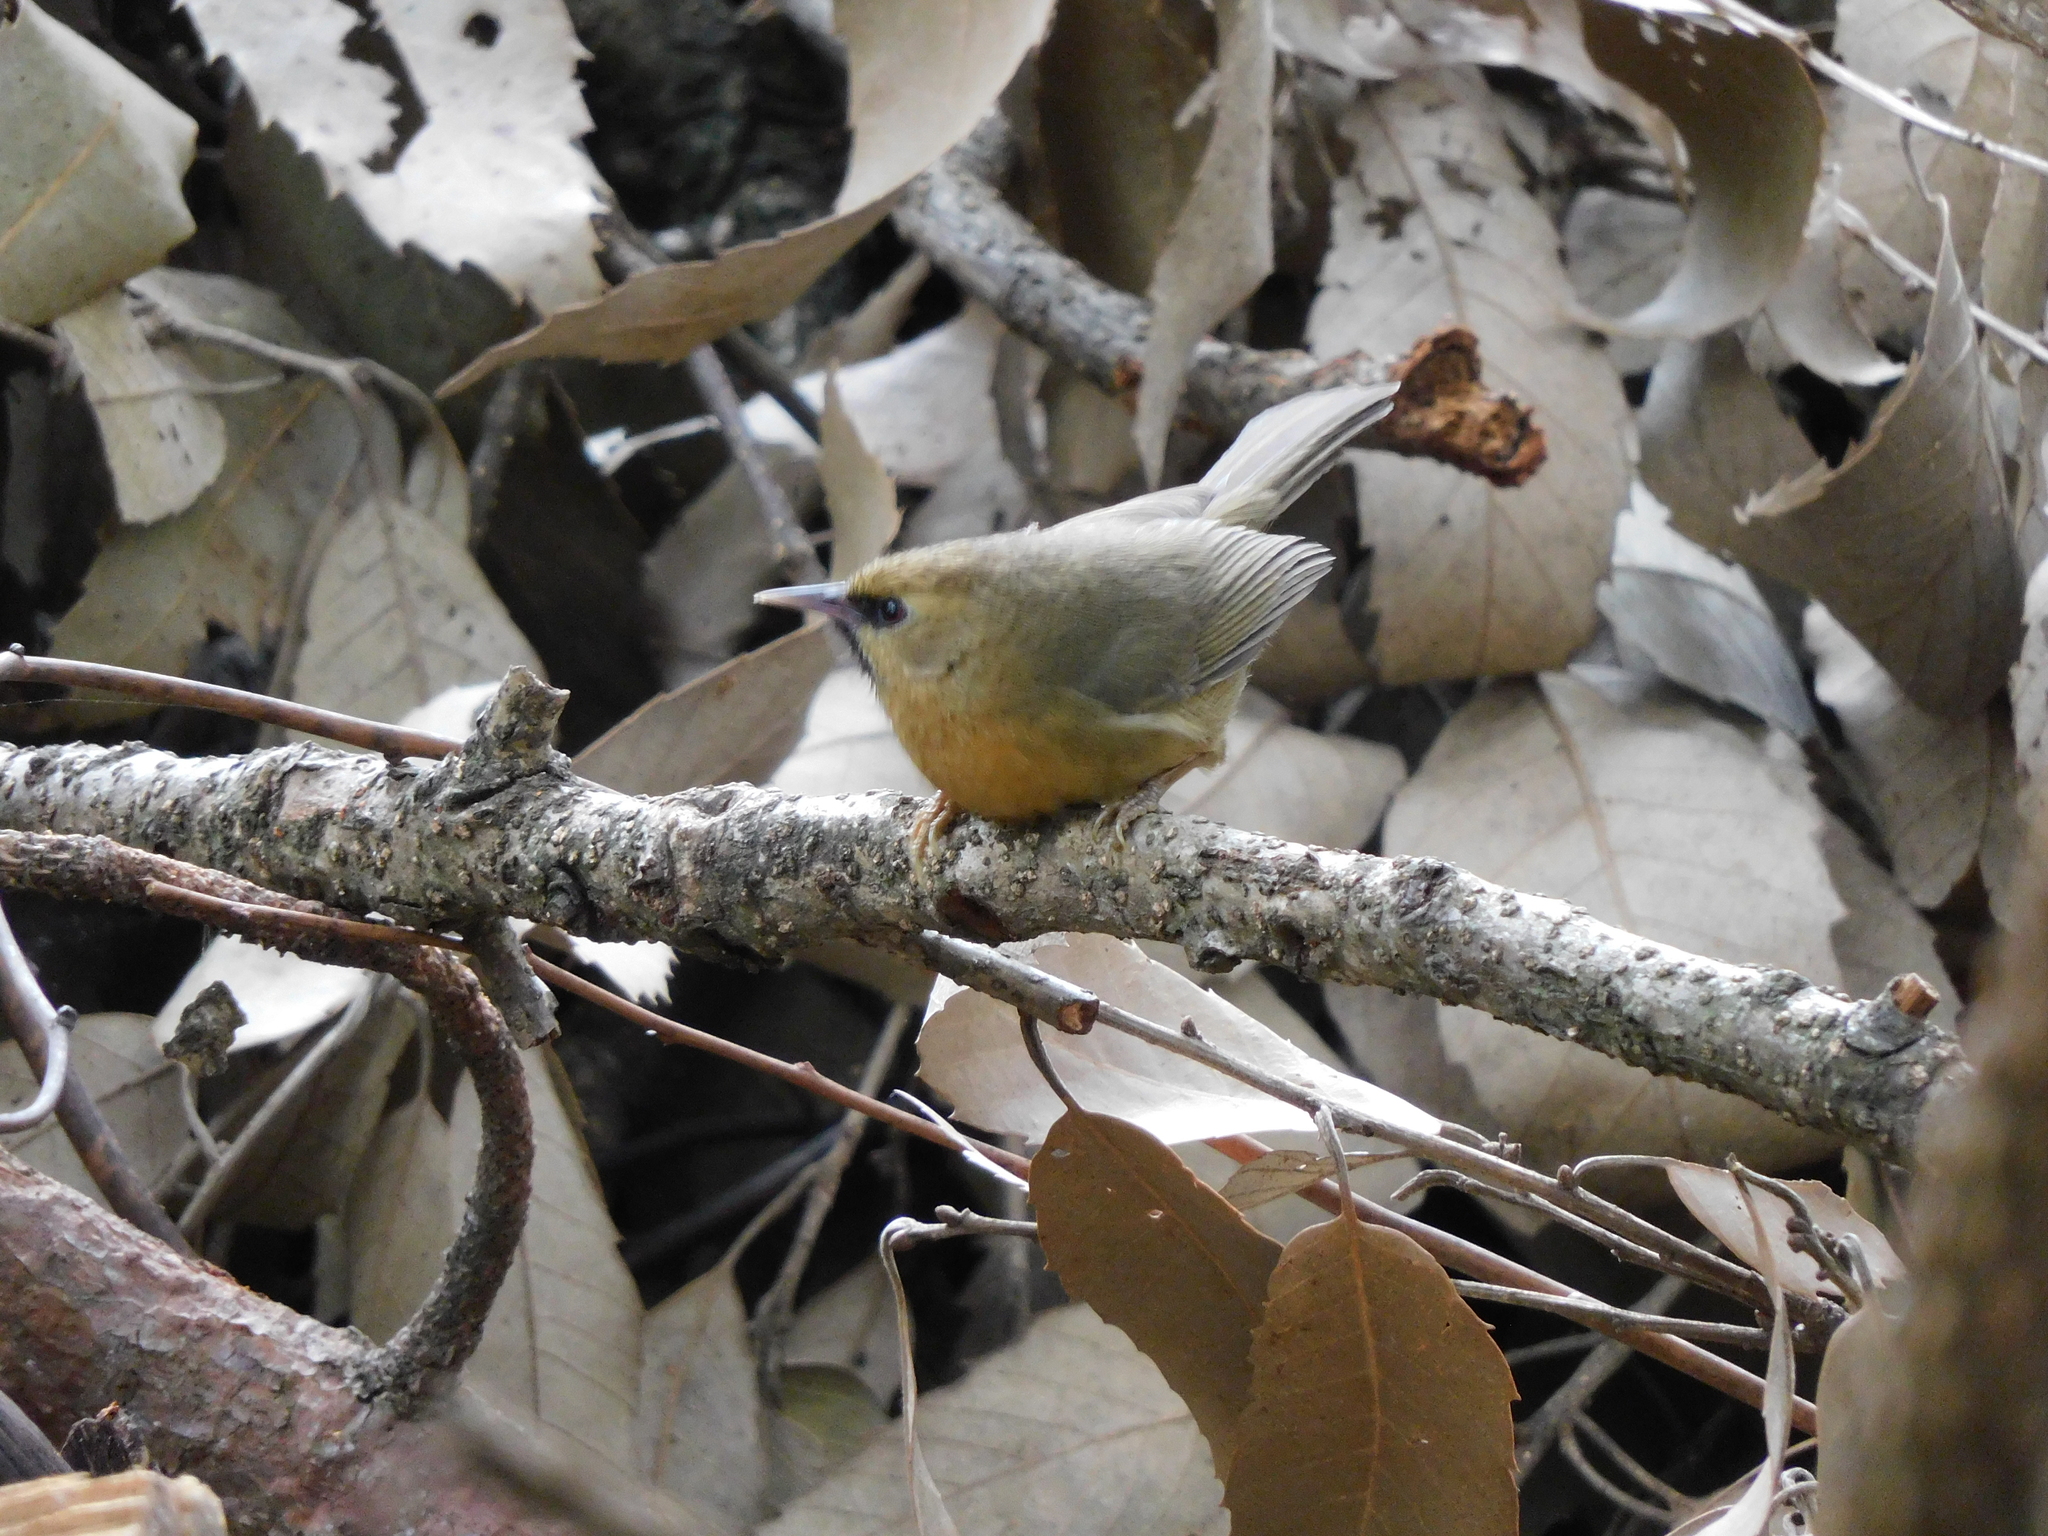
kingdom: Animalia
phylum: Chordata
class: Aves
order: Passeriformes
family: Timaliidae
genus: Stachyridopsis
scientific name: Stachyridopsis pyrrhops
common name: Black-chinned babbler
